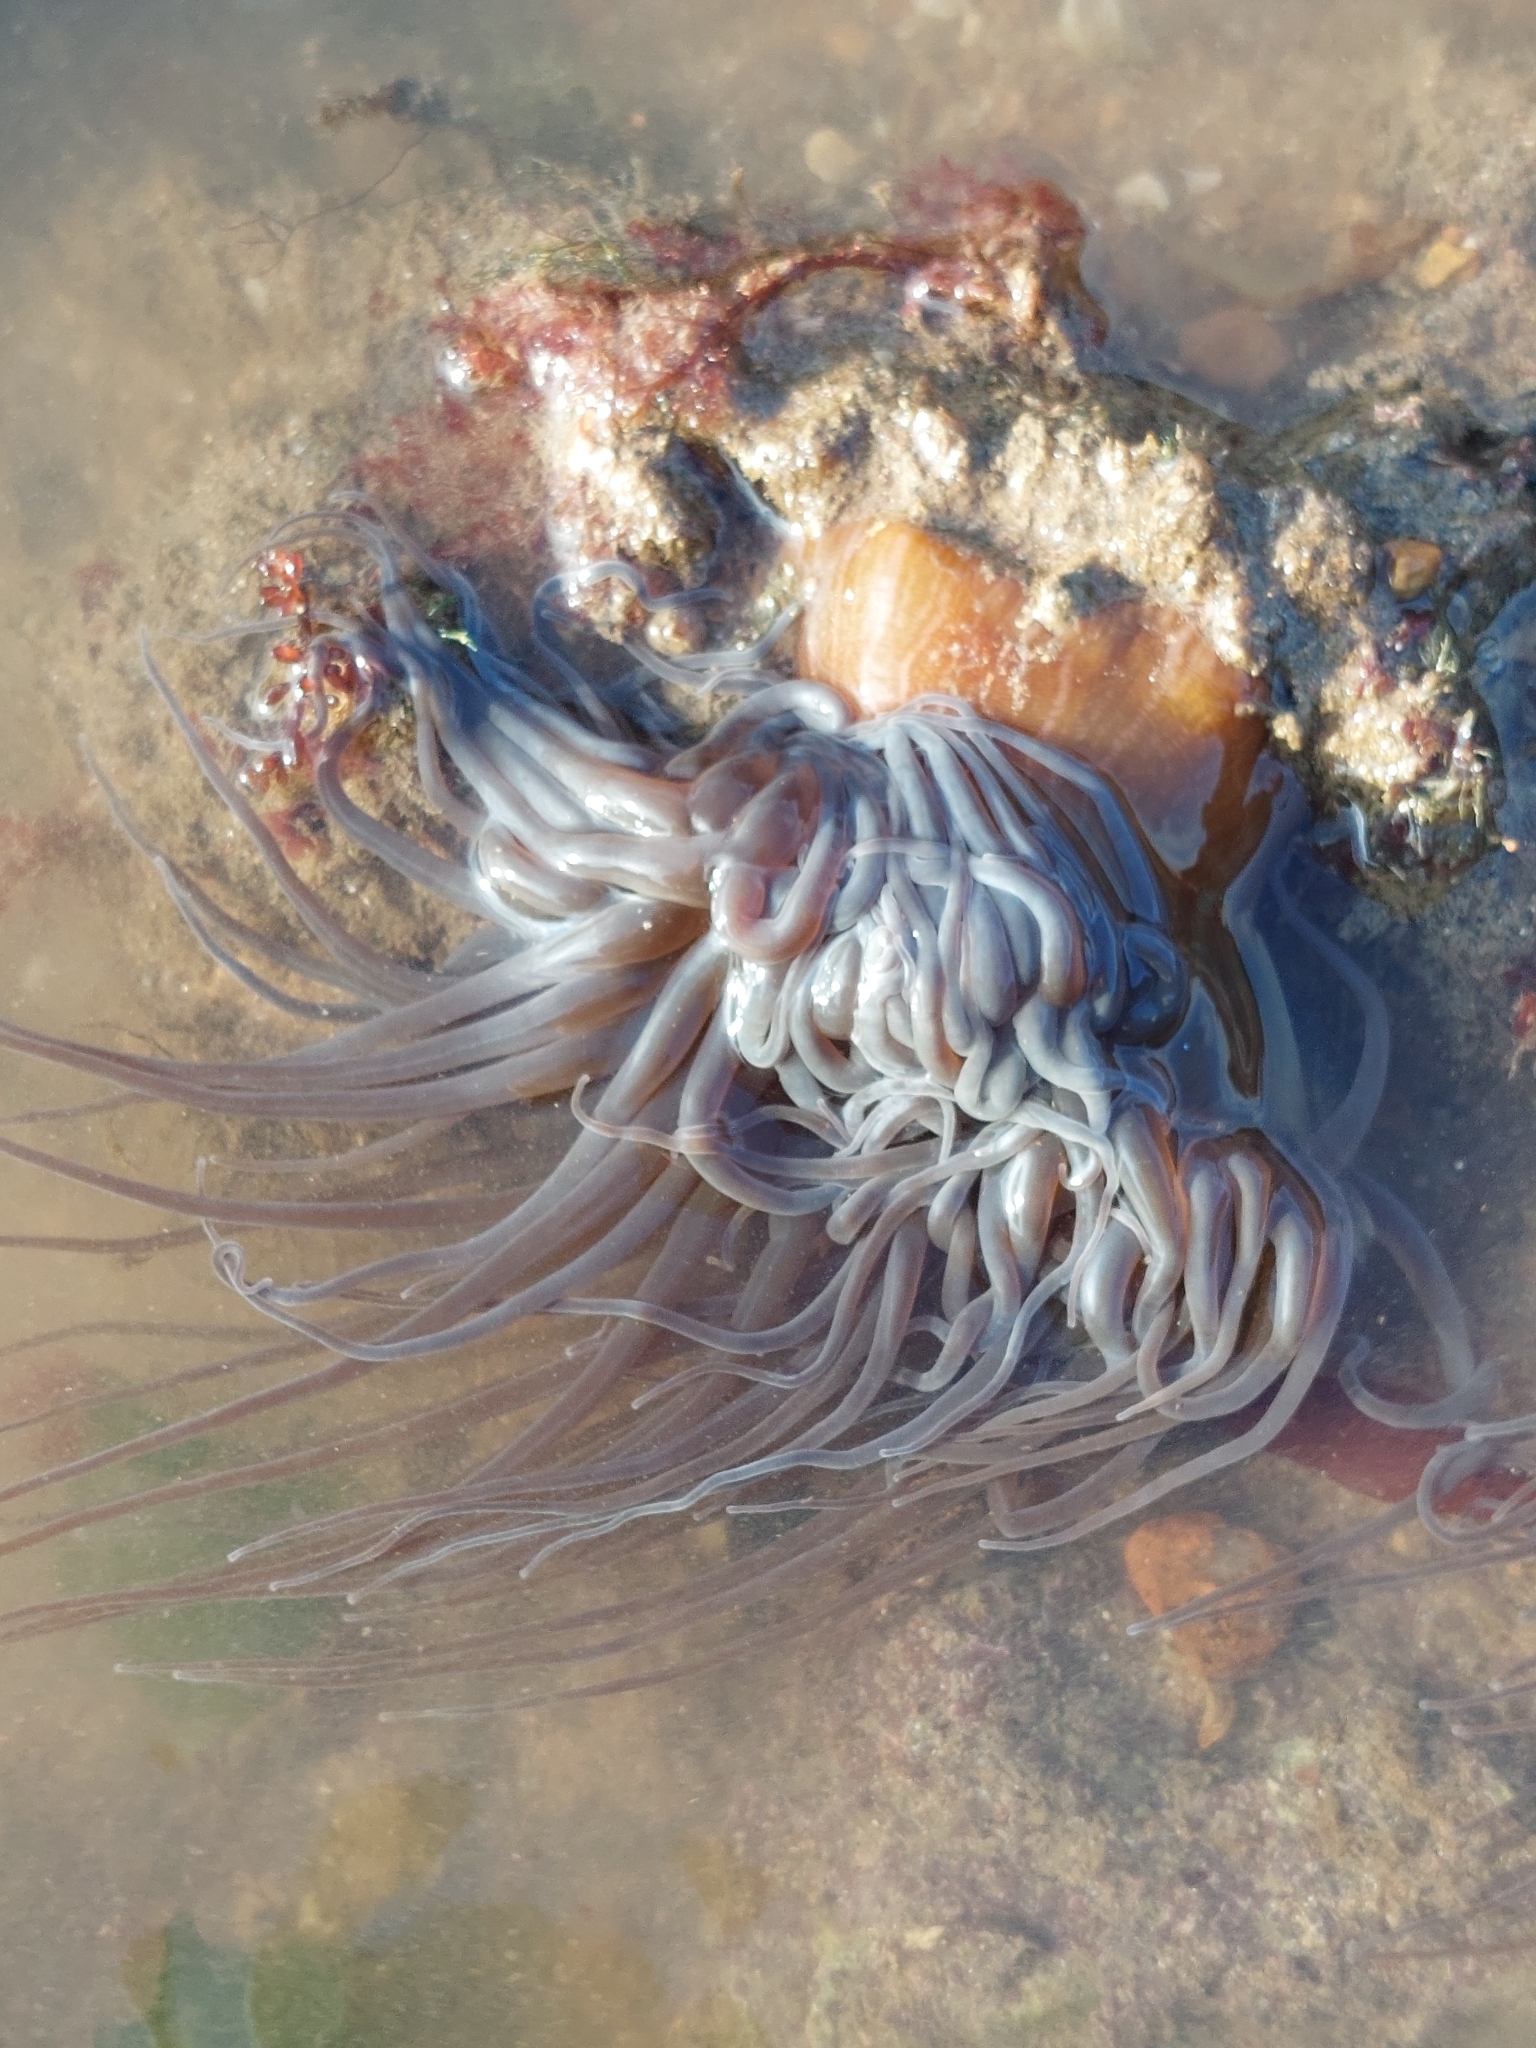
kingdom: Animalia
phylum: Cnidaria
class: Anthozoa
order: Actiniaria
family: Actiniidae
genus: Anemonia
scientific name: Anemonia viridis
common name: Snakelocks anemone
